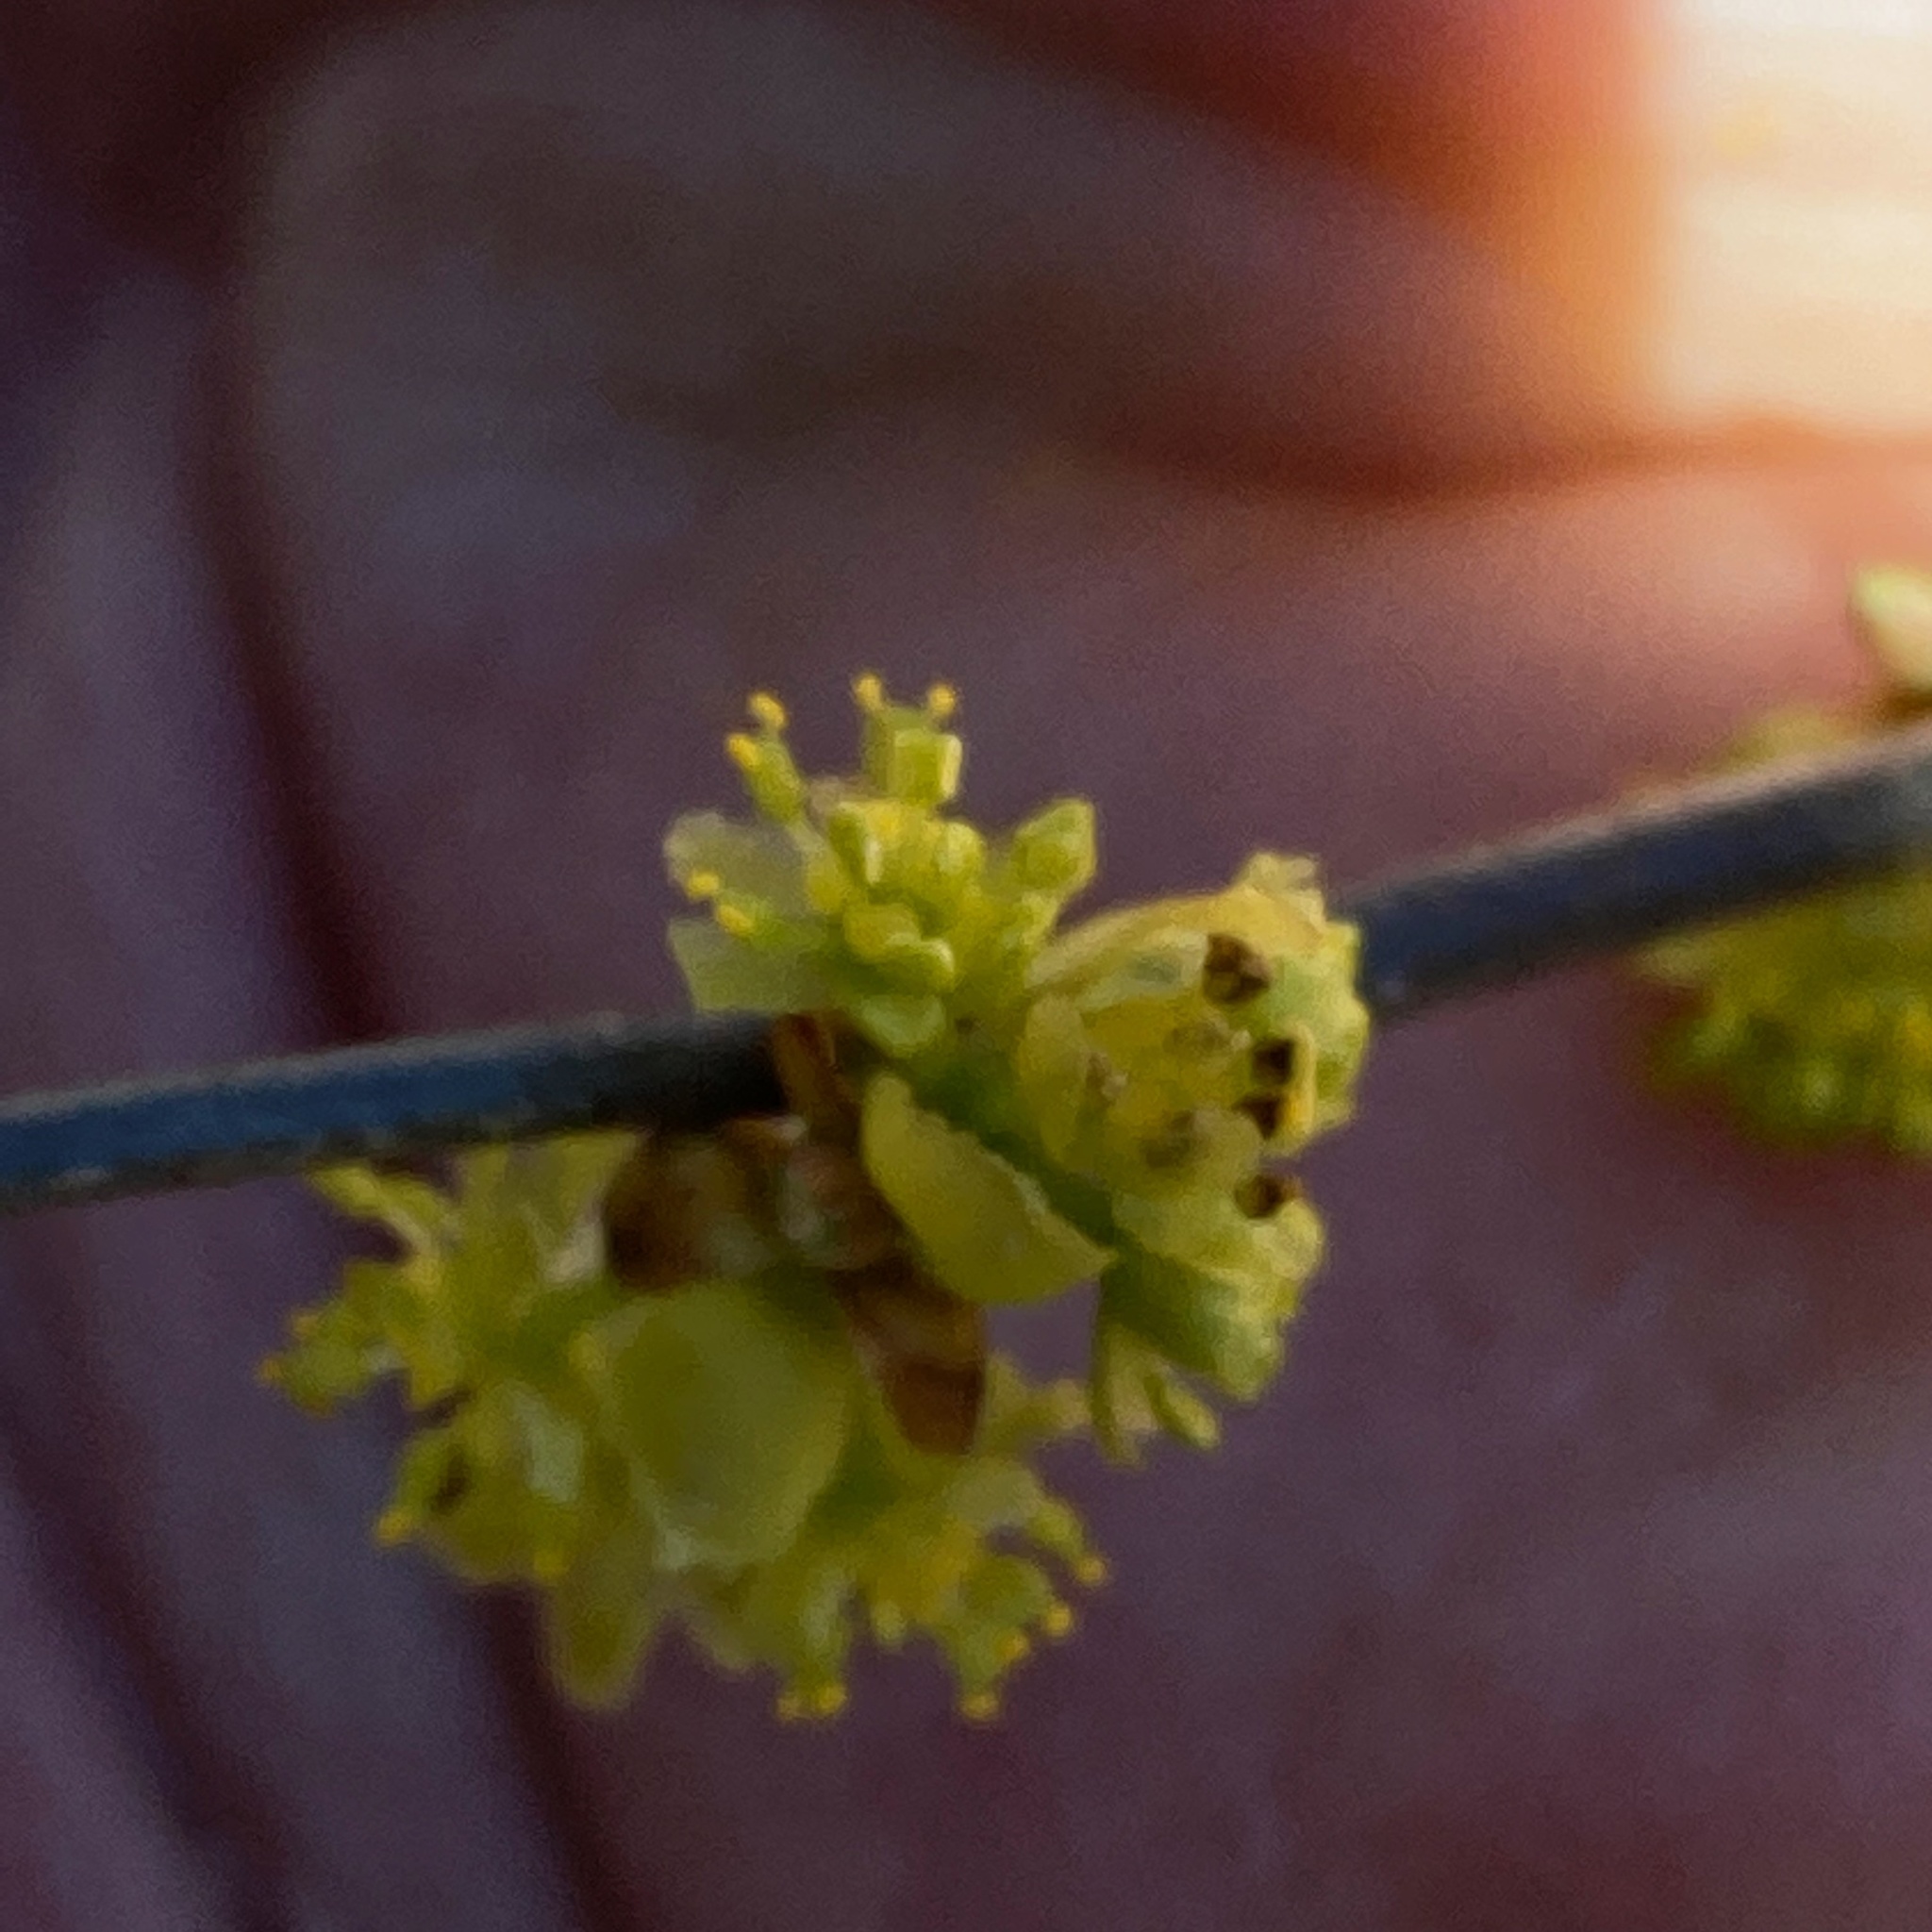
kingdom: Plantae
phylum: Tracheophyta
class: Magnoliopsida
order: Laurales
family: Lauraceae
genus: Lindera
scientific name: Lindera benzoin
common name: Spicebush
